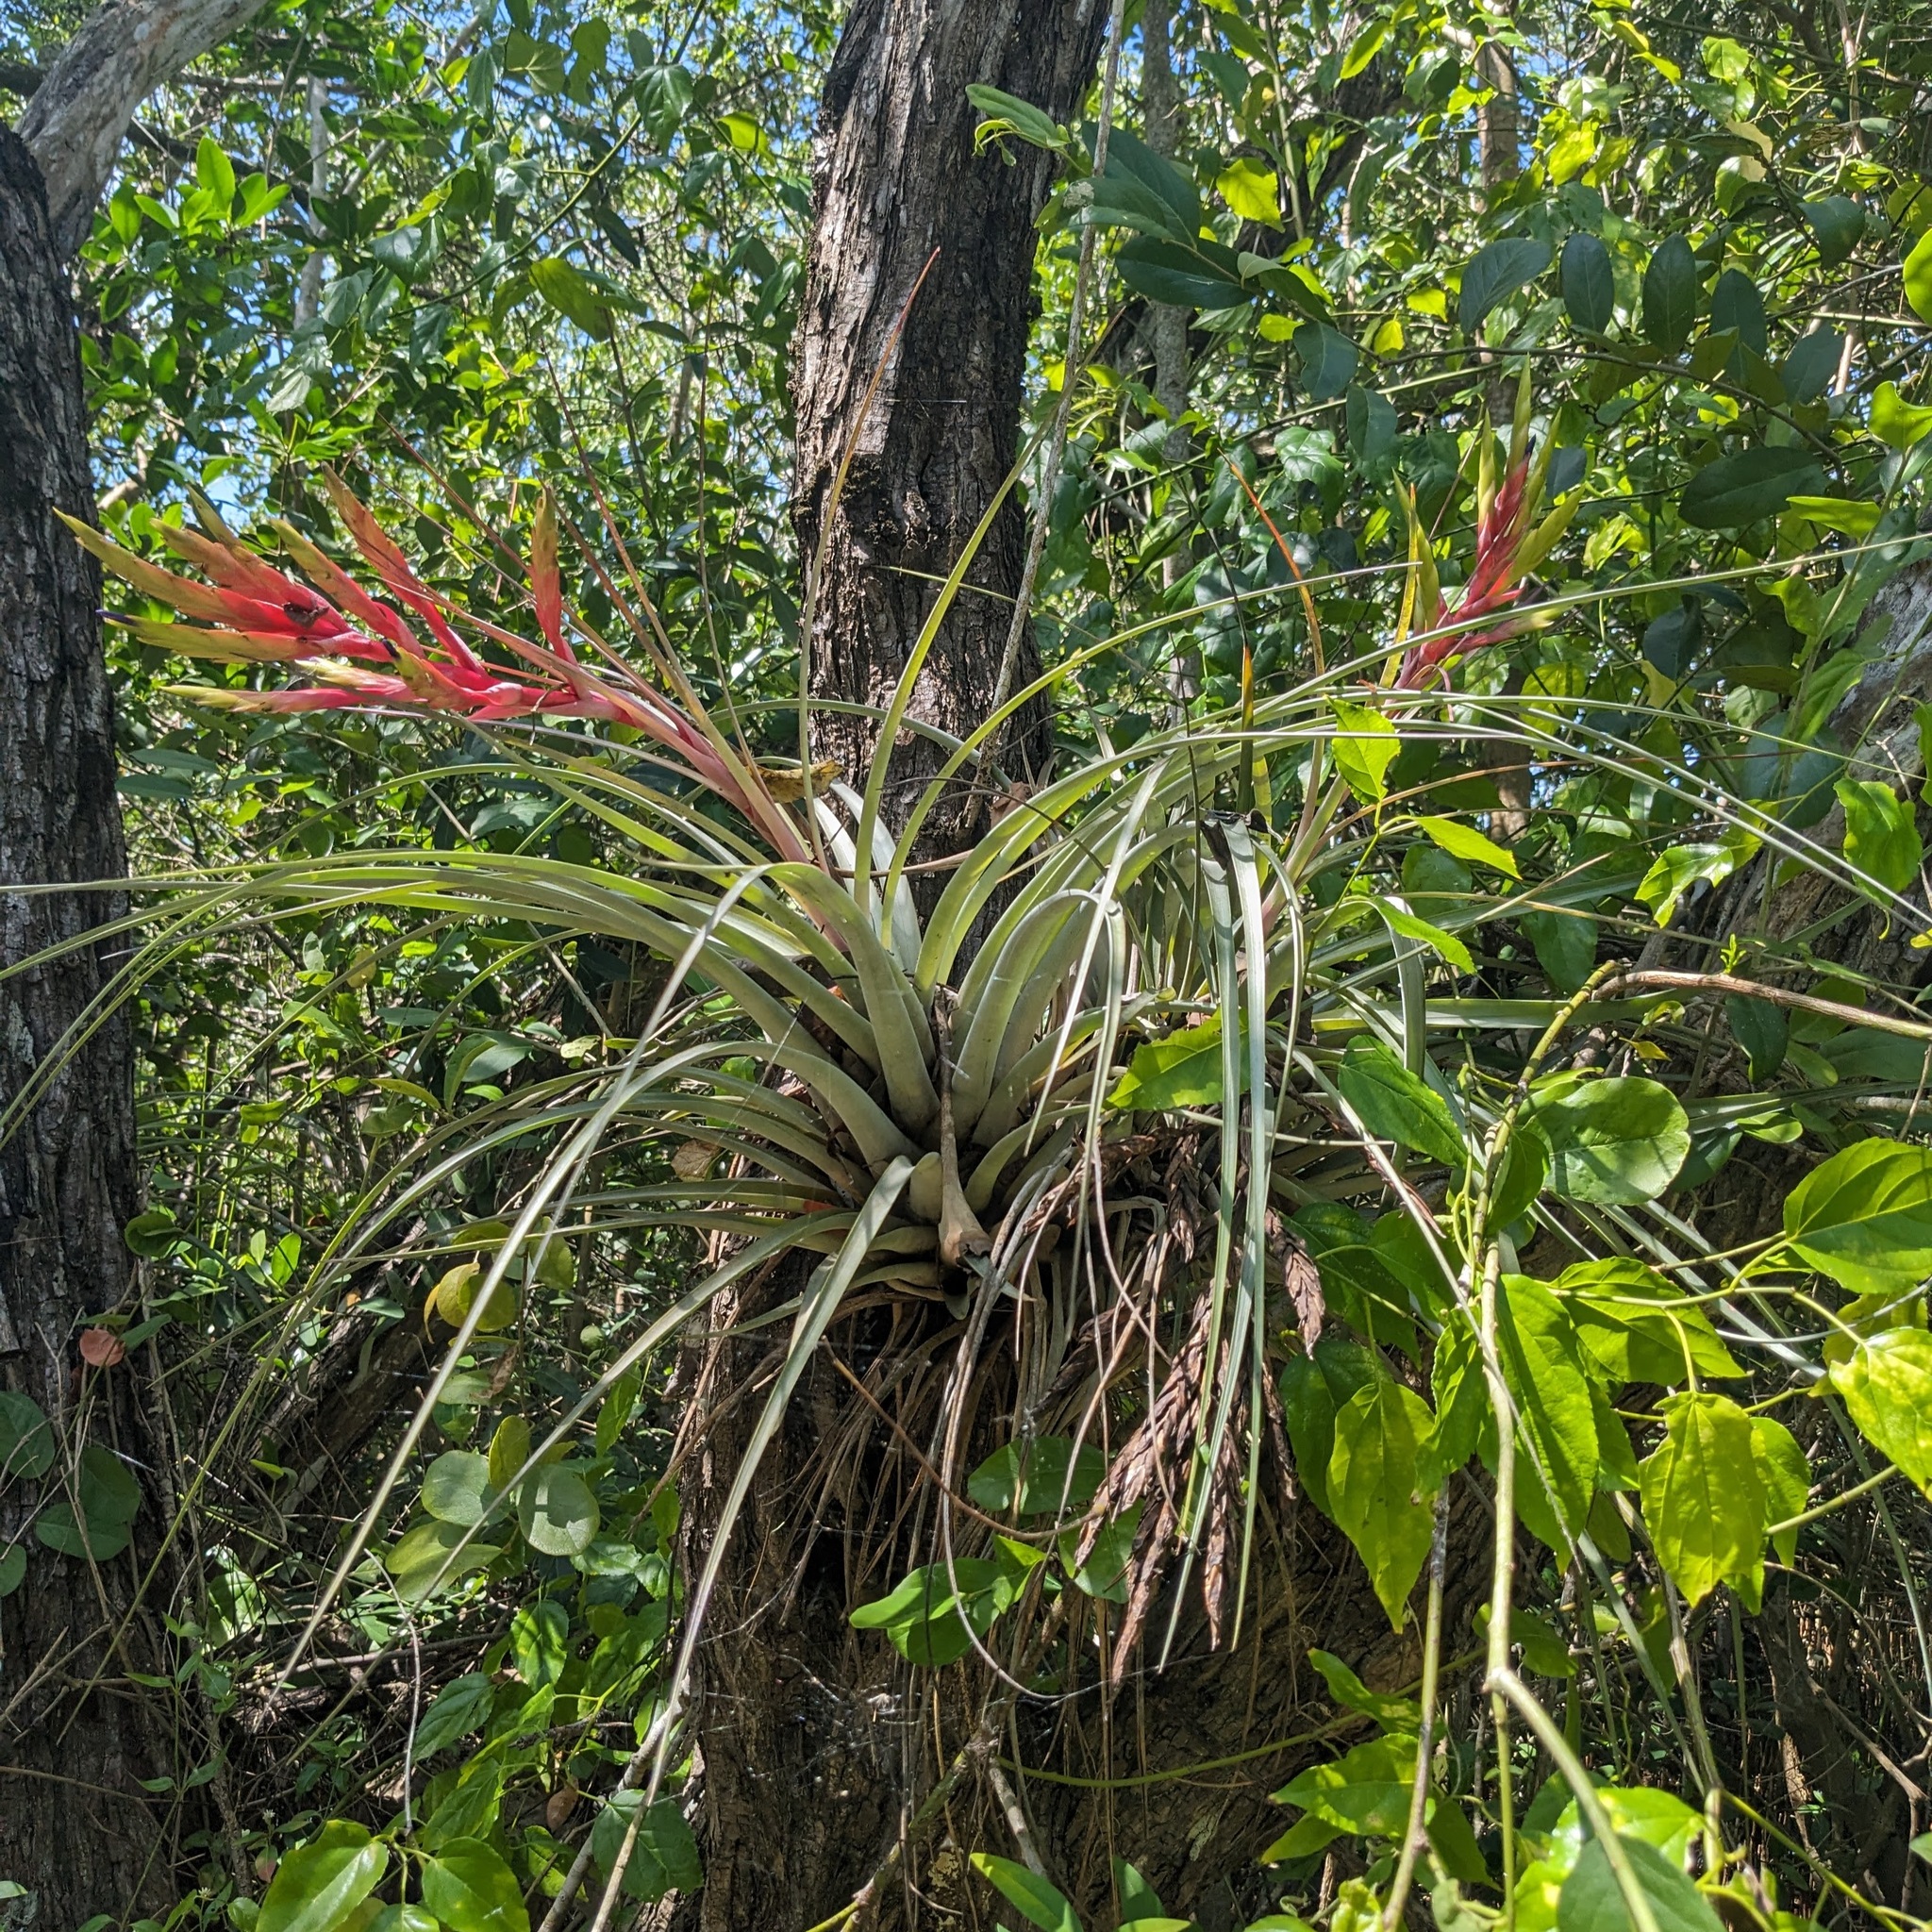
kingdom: Plantae
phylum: Tracheophyta
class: Liliopsida
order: Poales
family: Bromeliaceae
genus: Tillandsia
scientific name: Tillandsia fasciculata
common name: Giant airplant
